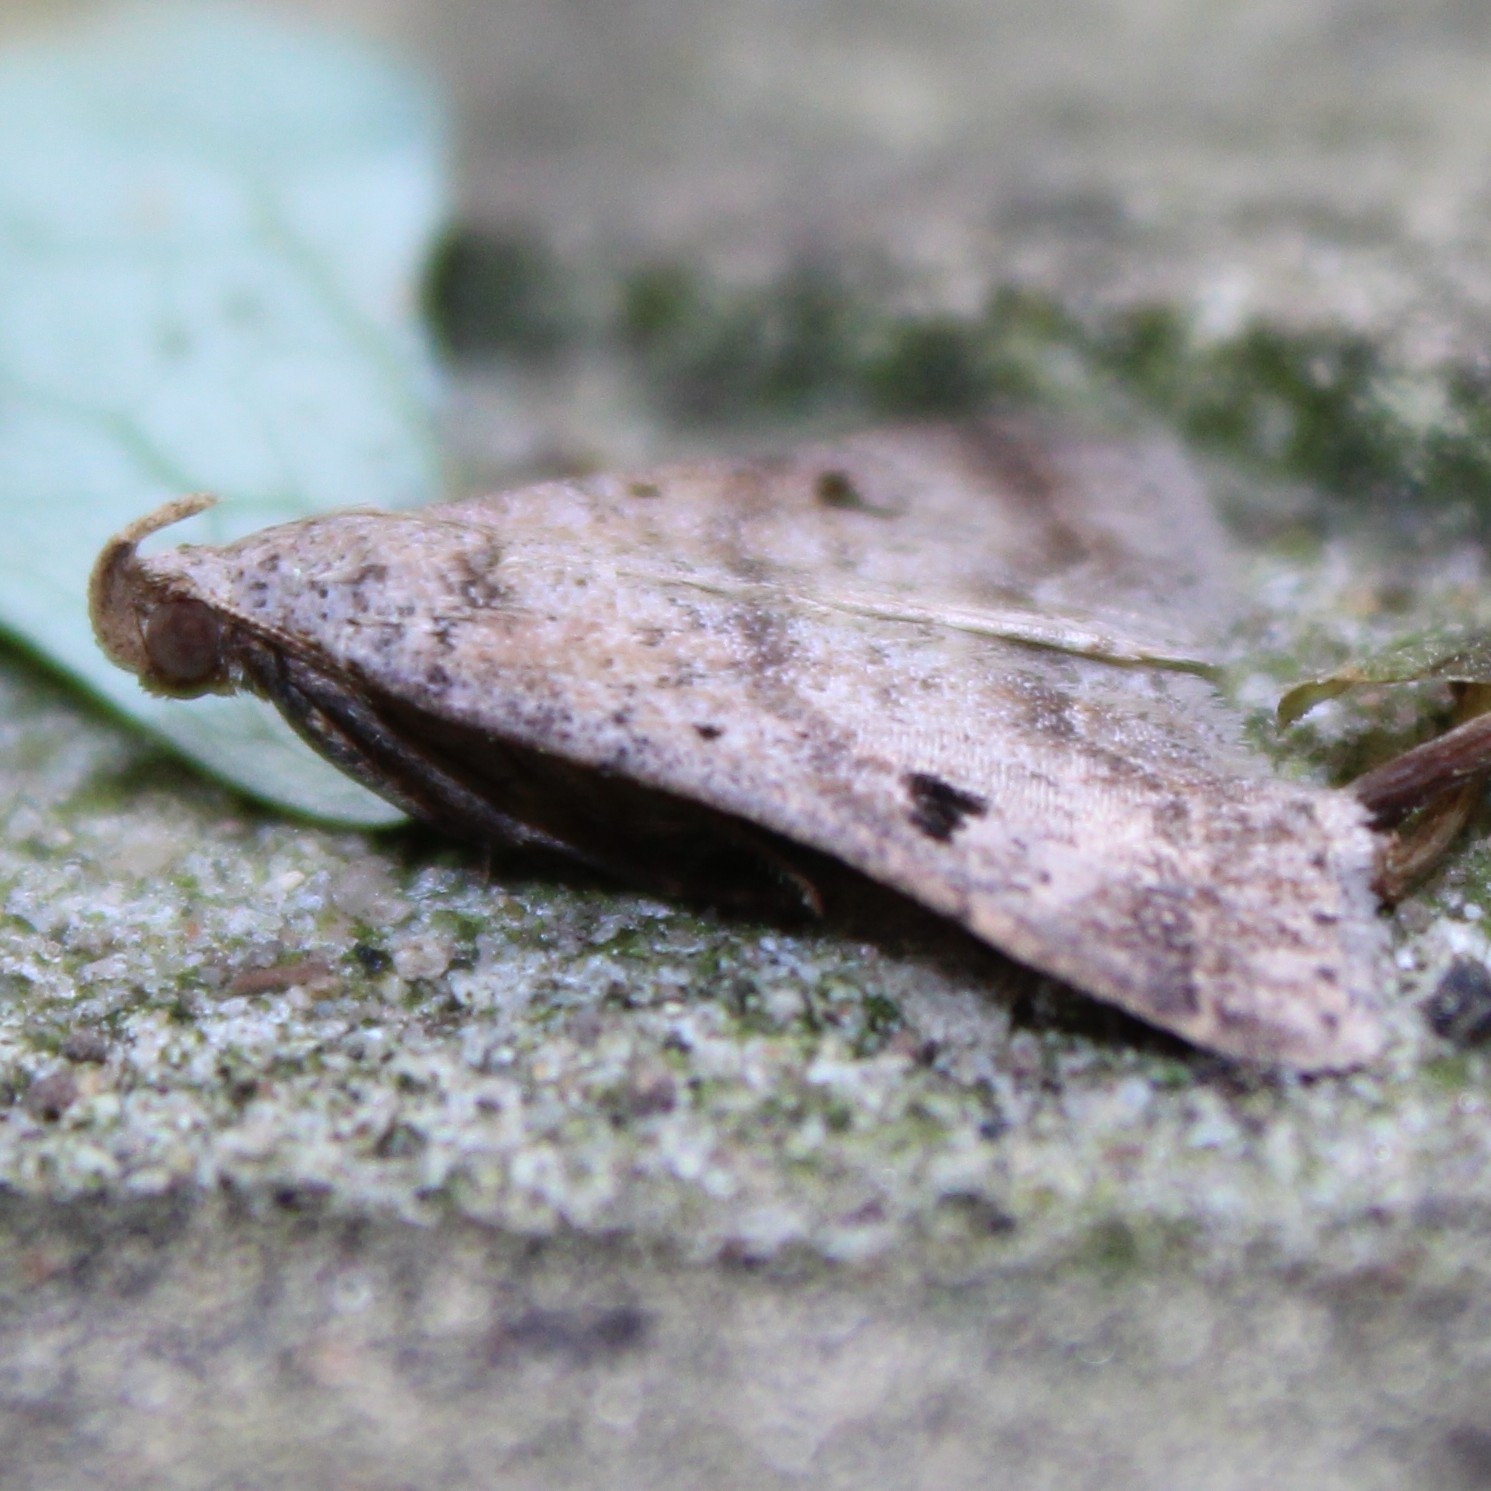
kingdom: Animalia
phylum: Arthropoda
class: Insecta
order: Lepidoptera
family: Erebidae
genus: Bleptina
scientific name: Bleptina caradrinalis
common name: Bent-winged owlet
